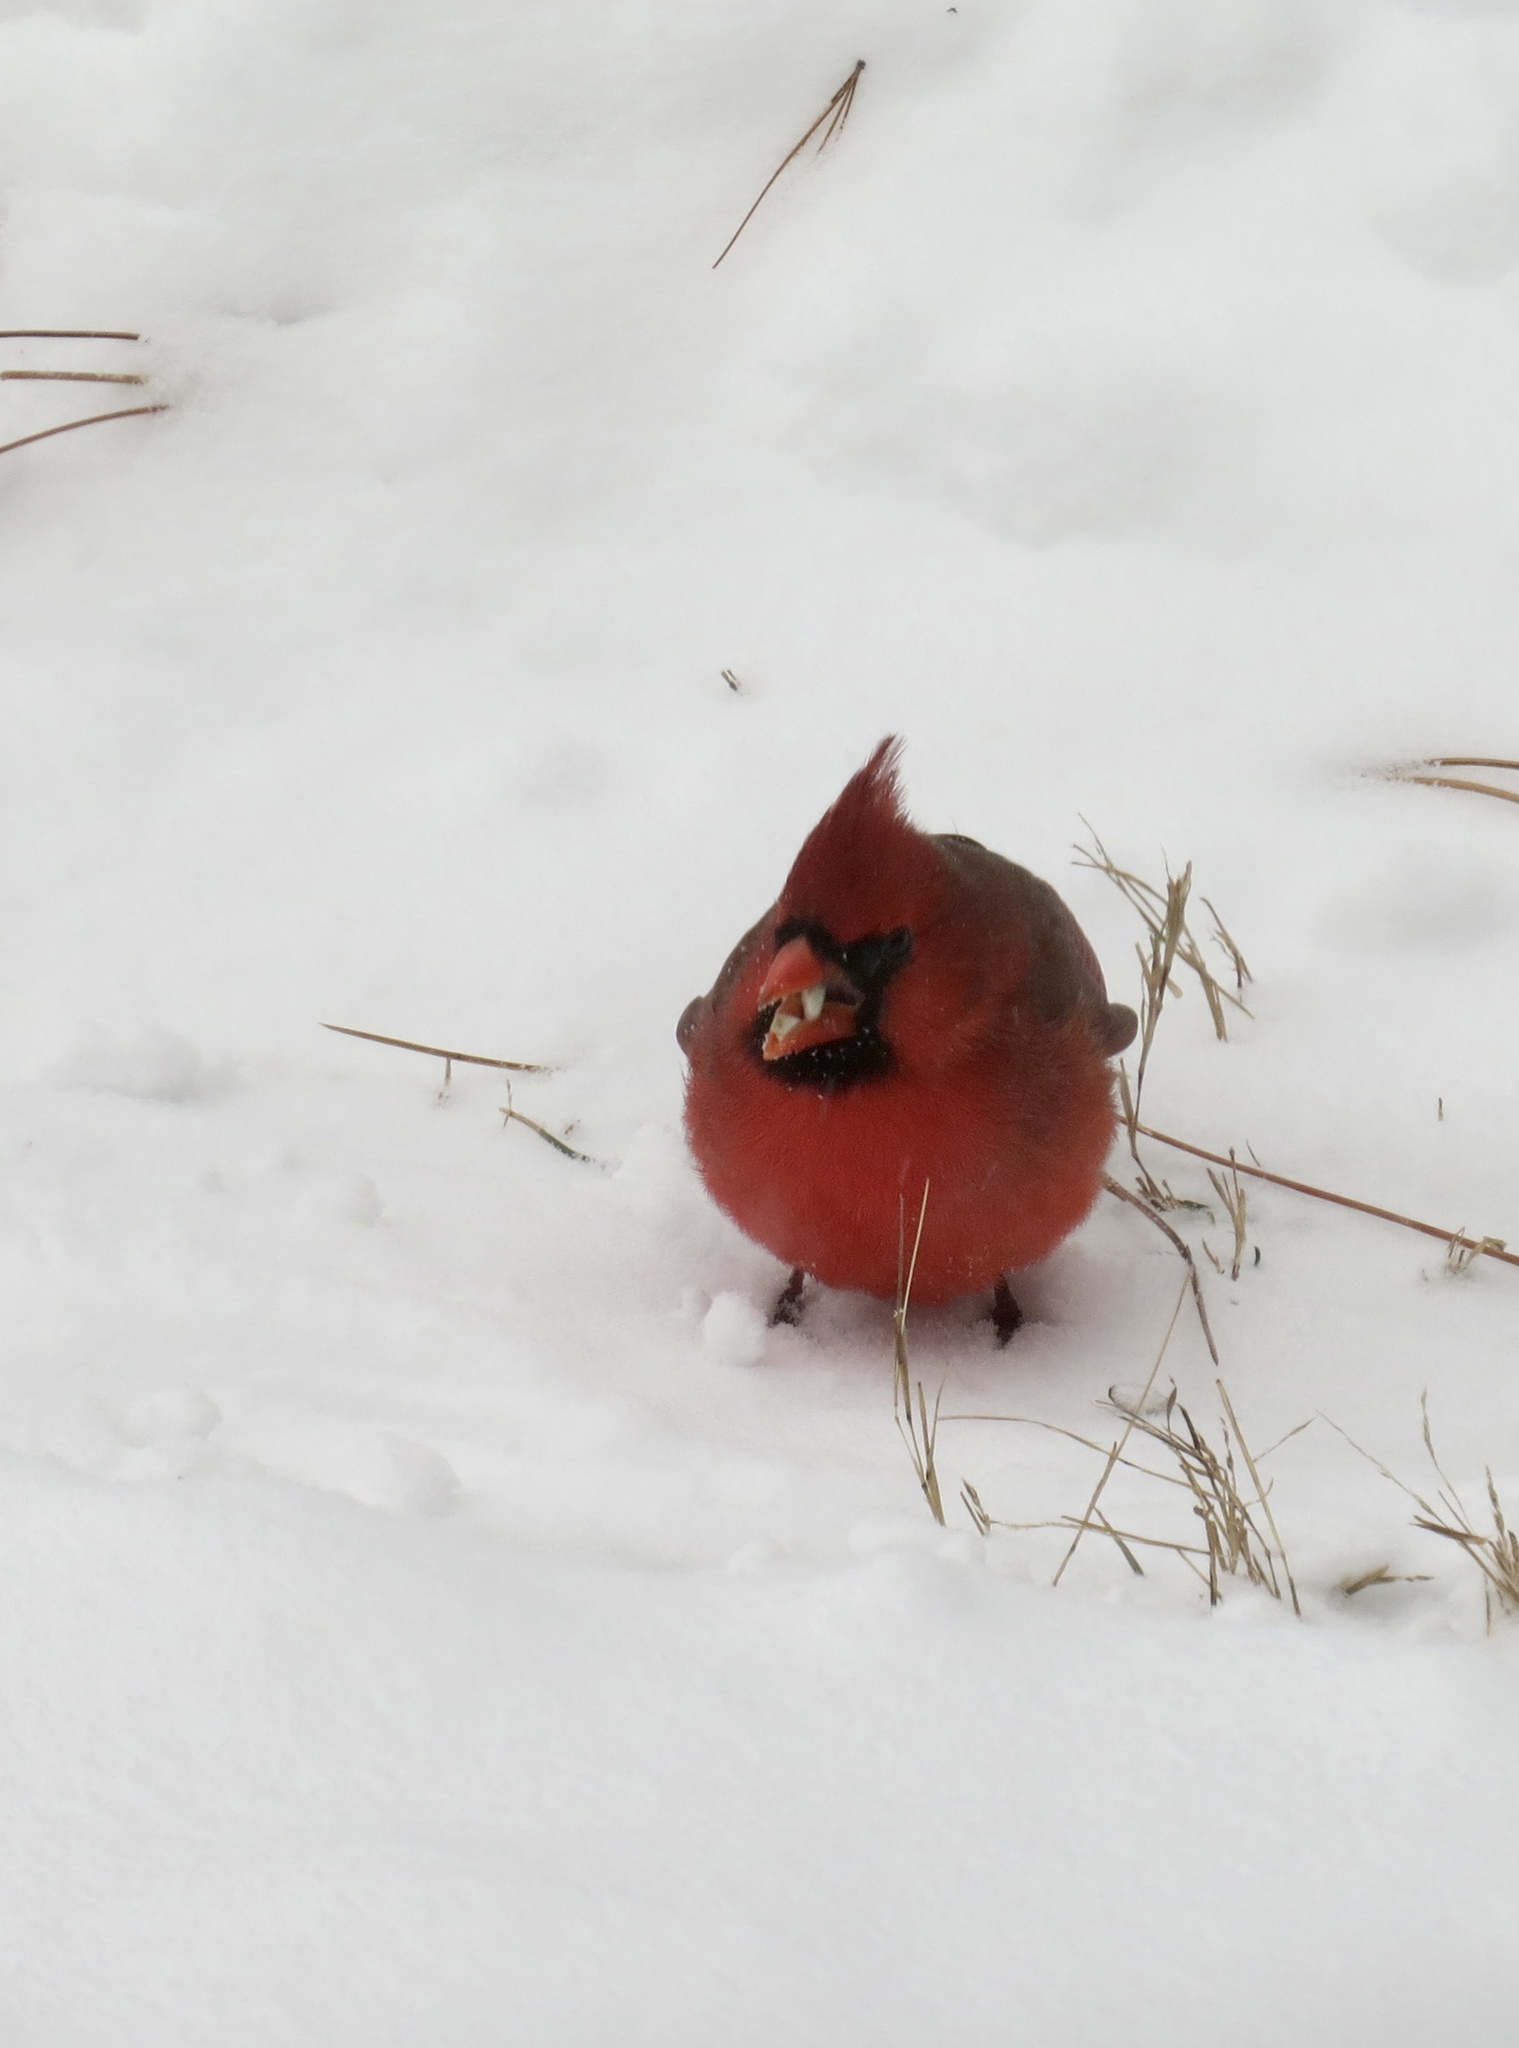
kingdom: Animalia
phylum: Chordata
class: Aves
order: Passeriformes
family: Cardinalidae
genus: Cardinalis
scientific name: Cardinalis cardinalis
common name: Northern cardinal
